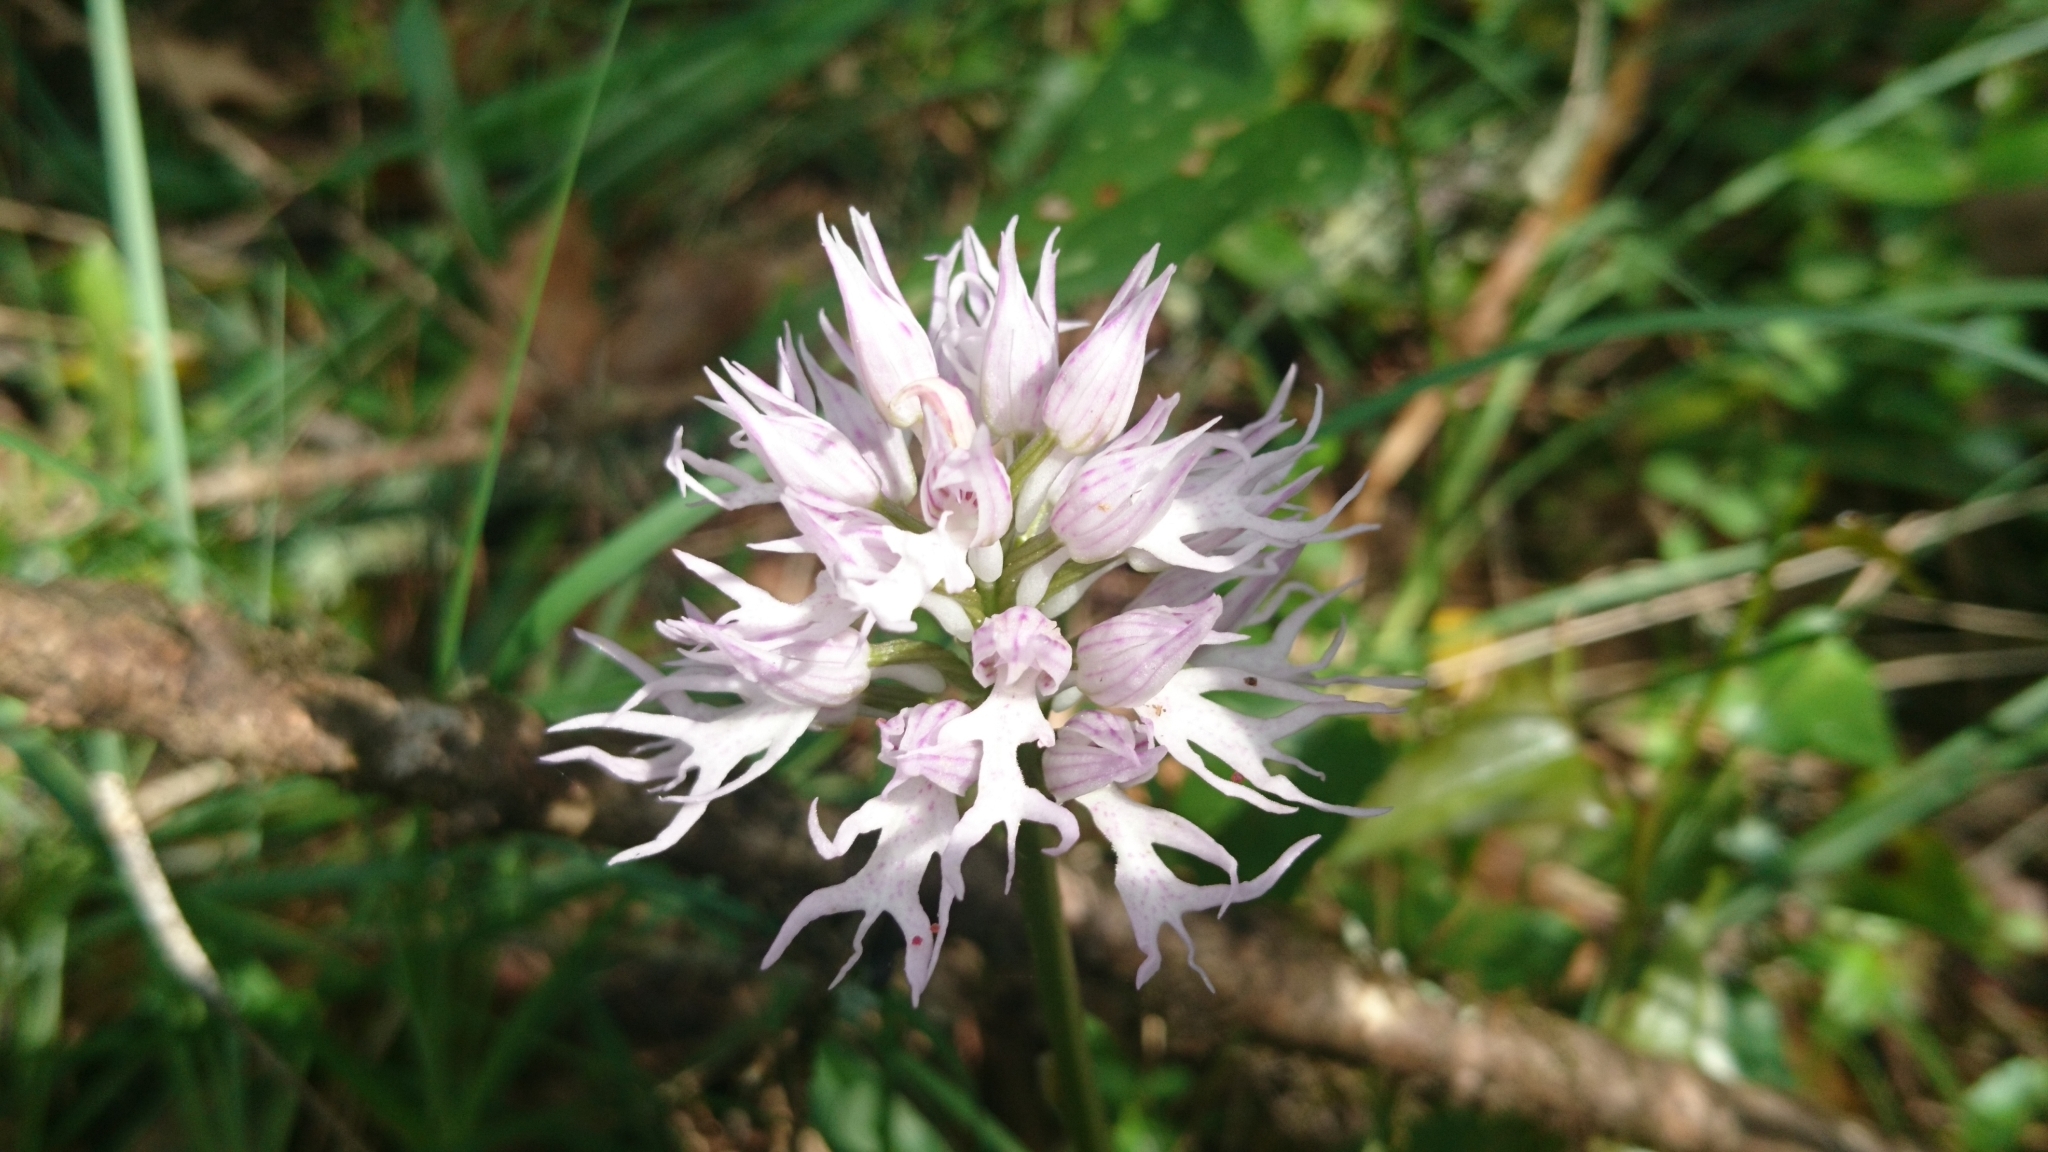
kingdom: Plantae
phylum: Tracheophyta
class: Liliopsida
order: Asparagales
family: Orchidaceae
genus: Orchis
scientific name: Orchis italica
